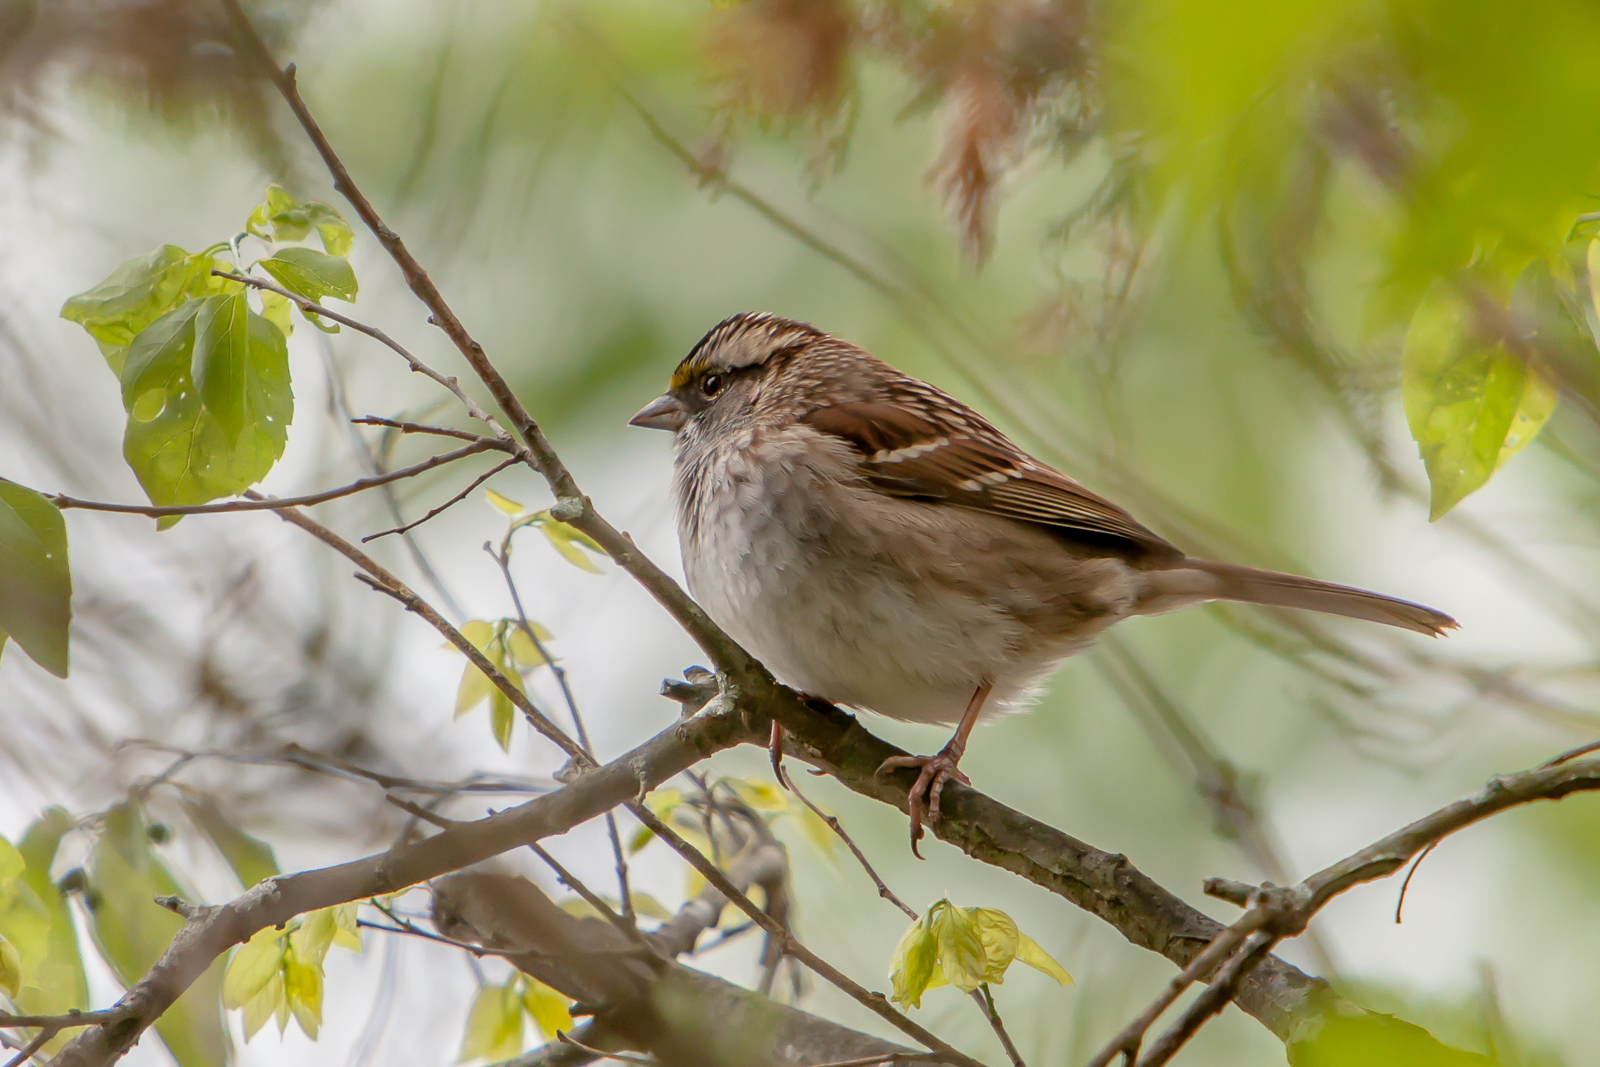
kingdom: Animalia
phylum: Chordata
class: Aves
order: Passeriformes
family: Passerellidae
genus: Zonotrichia
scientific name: Zonotrichia albicollis
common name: White-throated sparrow
